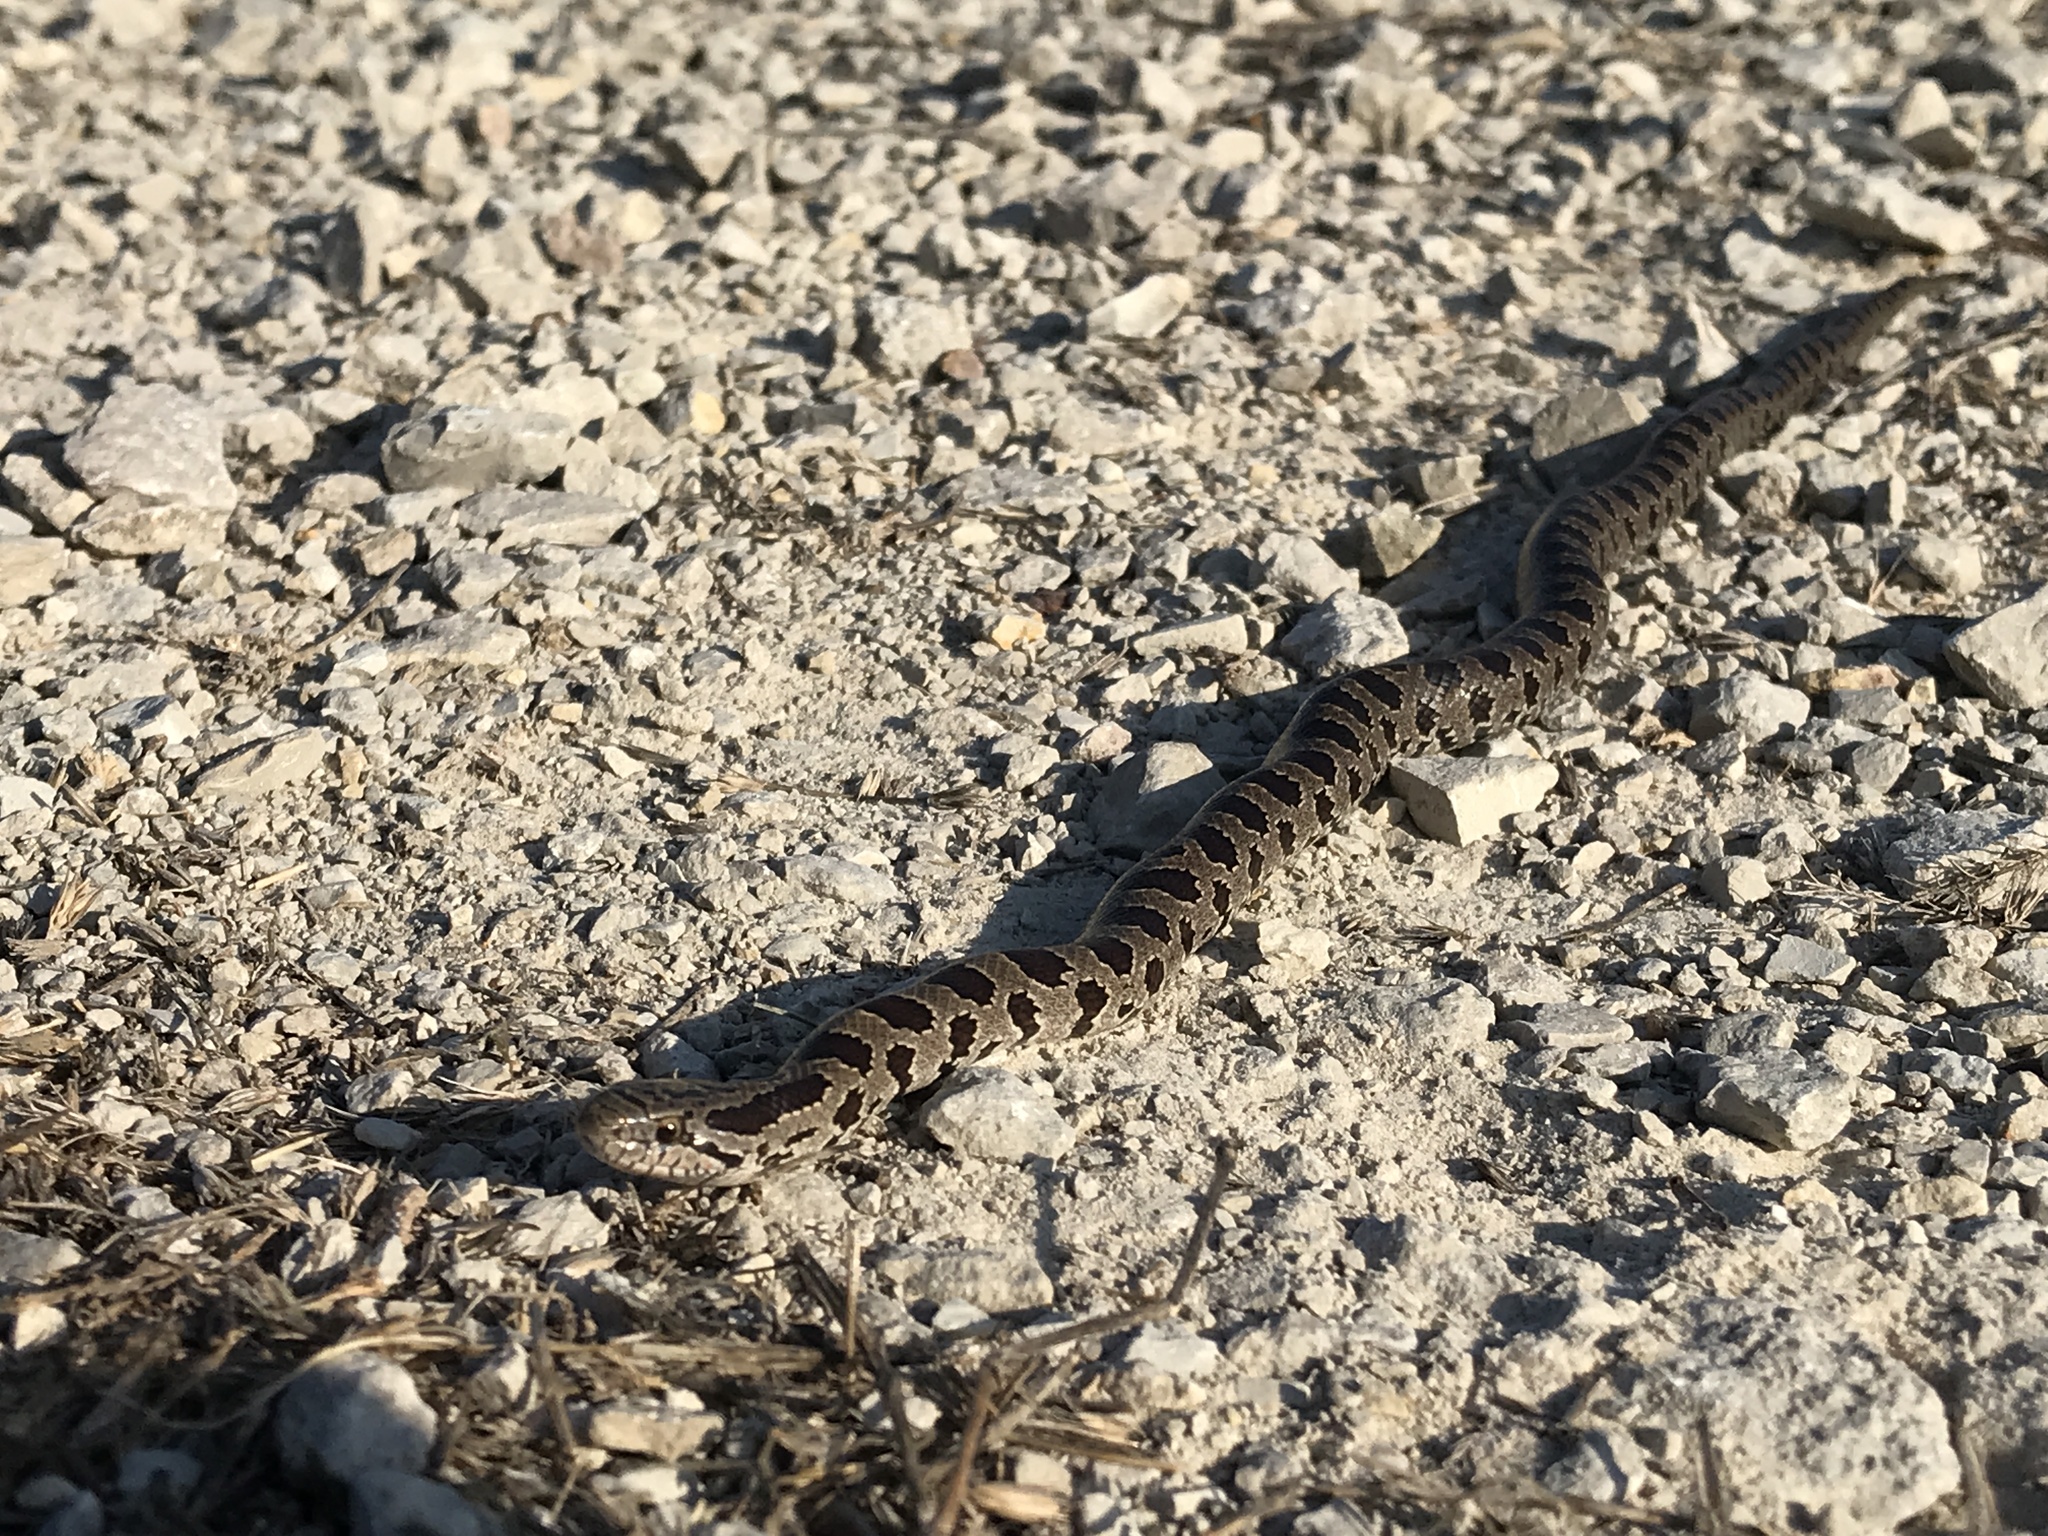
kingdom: Animalia
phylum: Chordata
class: Squamata
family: Colubridae
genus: Lampropeltis
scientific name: Lampropeltis calligaster
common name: Prairie kingsnake
